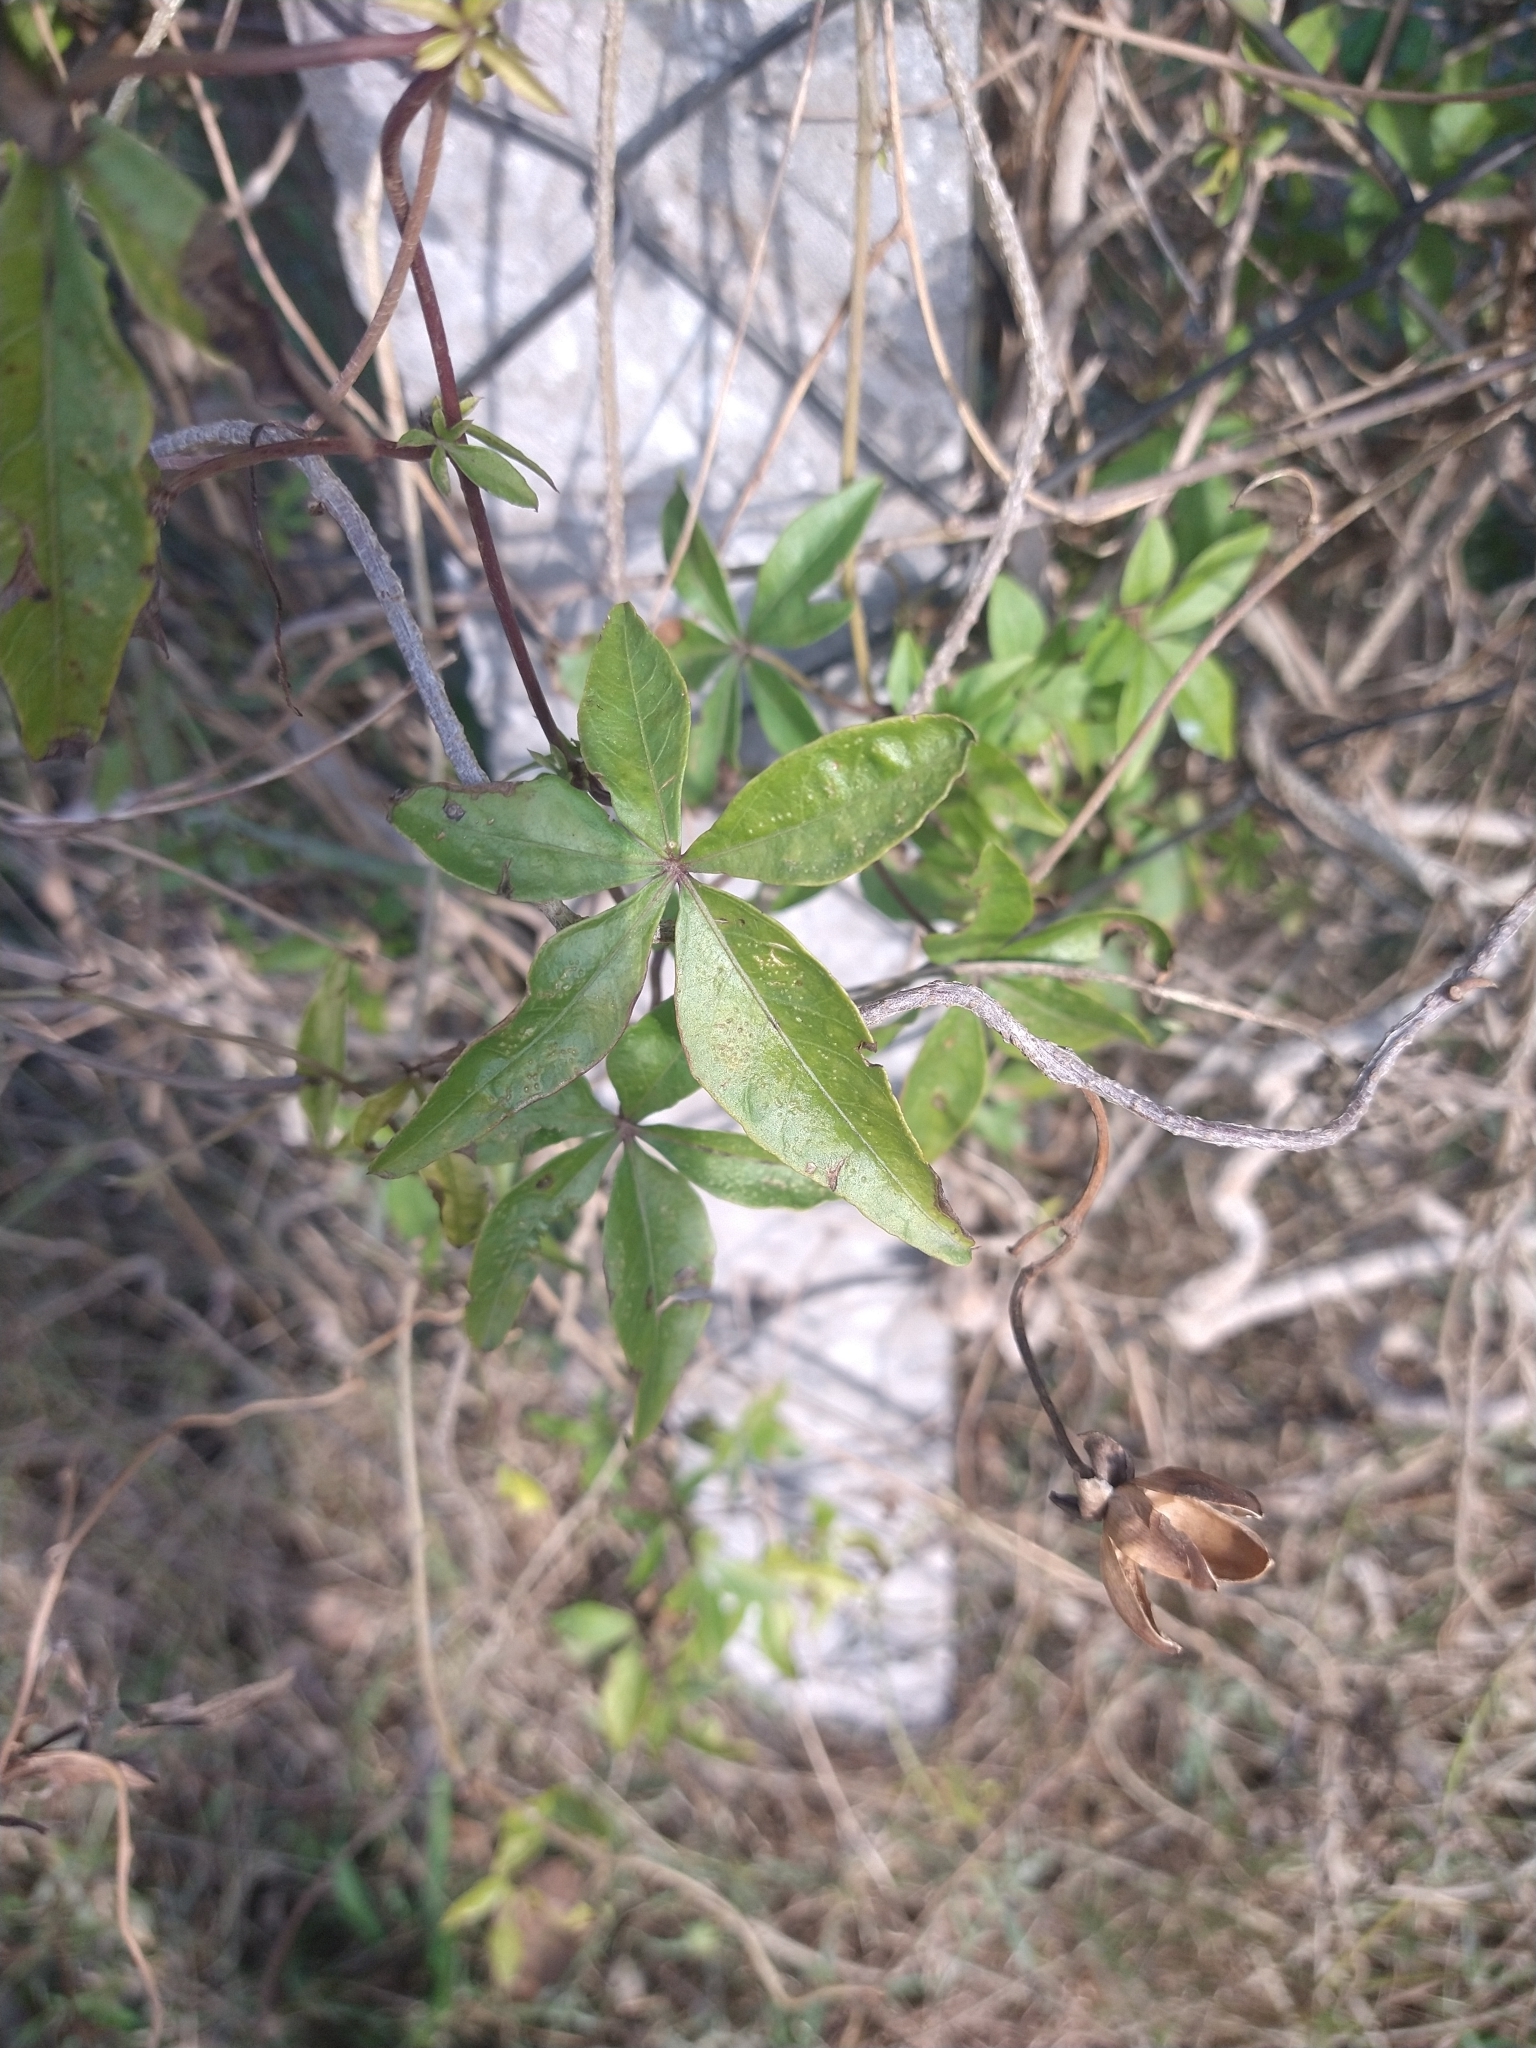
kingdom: Plantae
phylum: Tracheophyta
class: Magnoliopsida
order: Solanales
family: Convolvulaceae
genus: Ipomoea
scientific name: Ipomoea cairica
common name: Mile a minute vine
